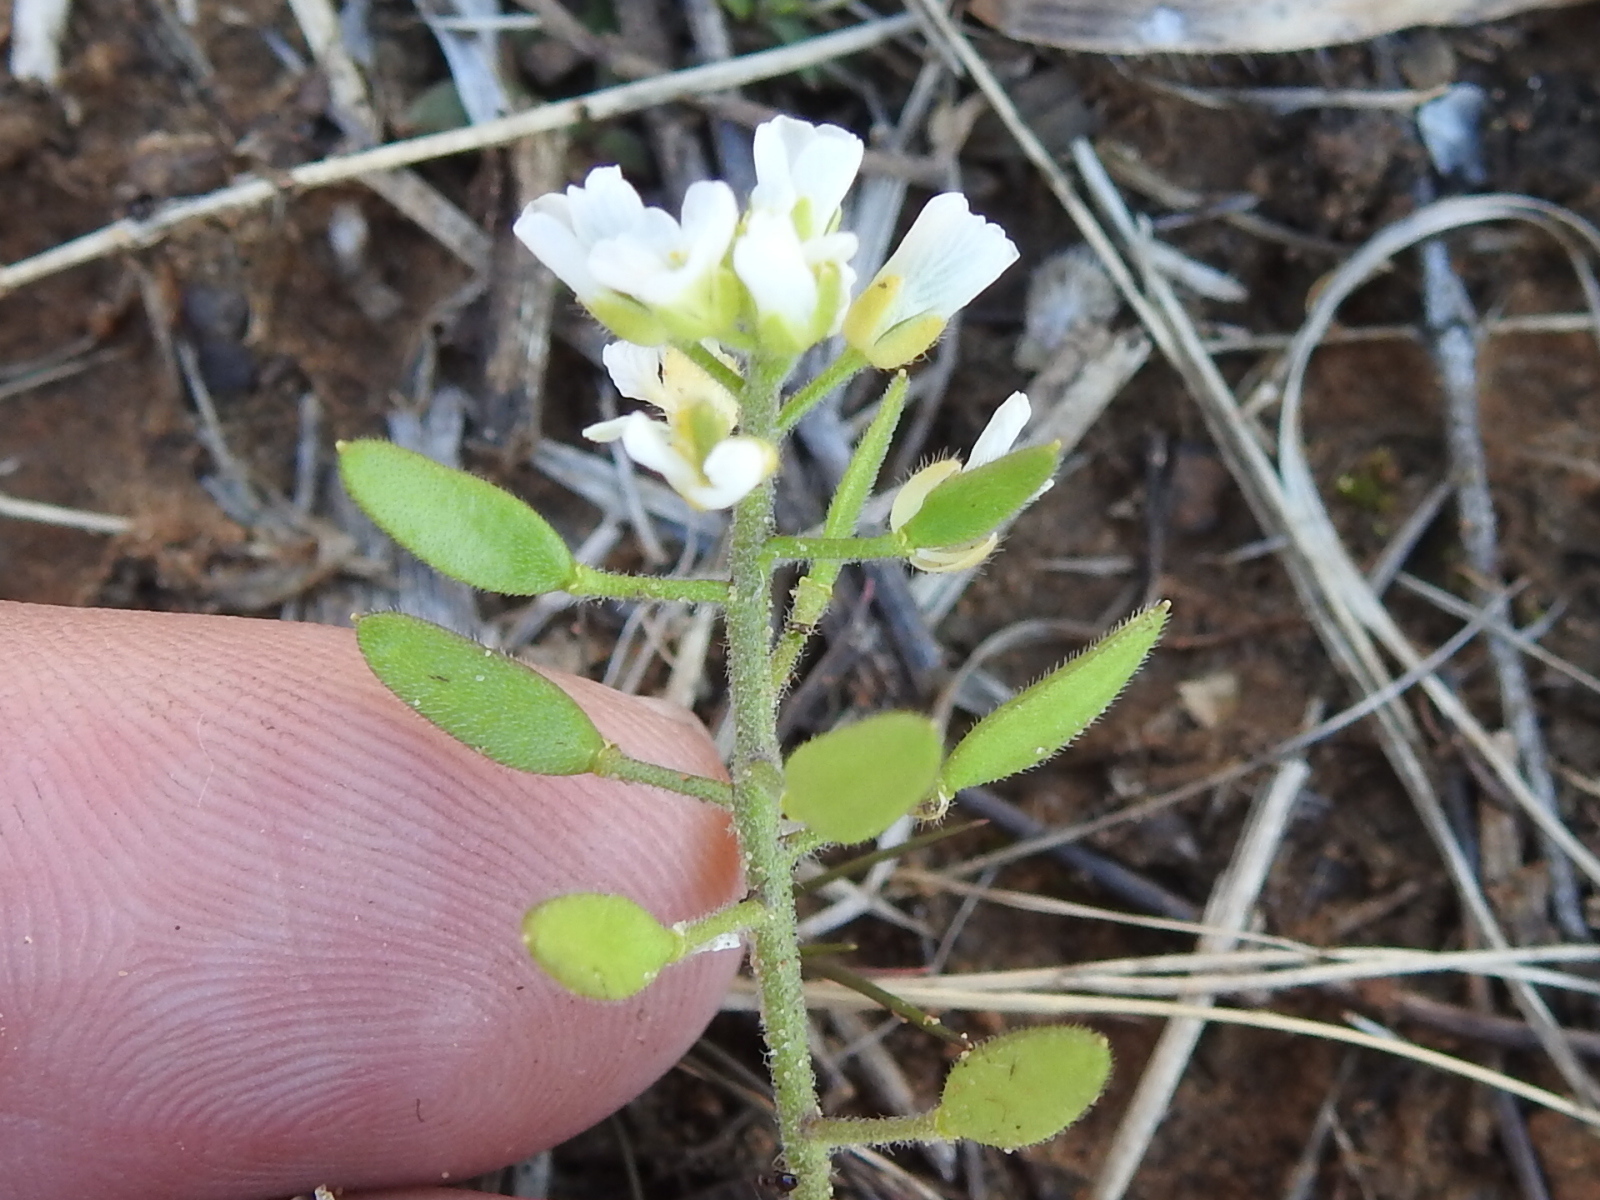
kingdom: Plantae
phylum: Tracheophyta
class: Magnoliopsida
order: Brassicales
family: Brassicaceae
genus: Tomostima
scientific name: Tomostima cuneifolia
